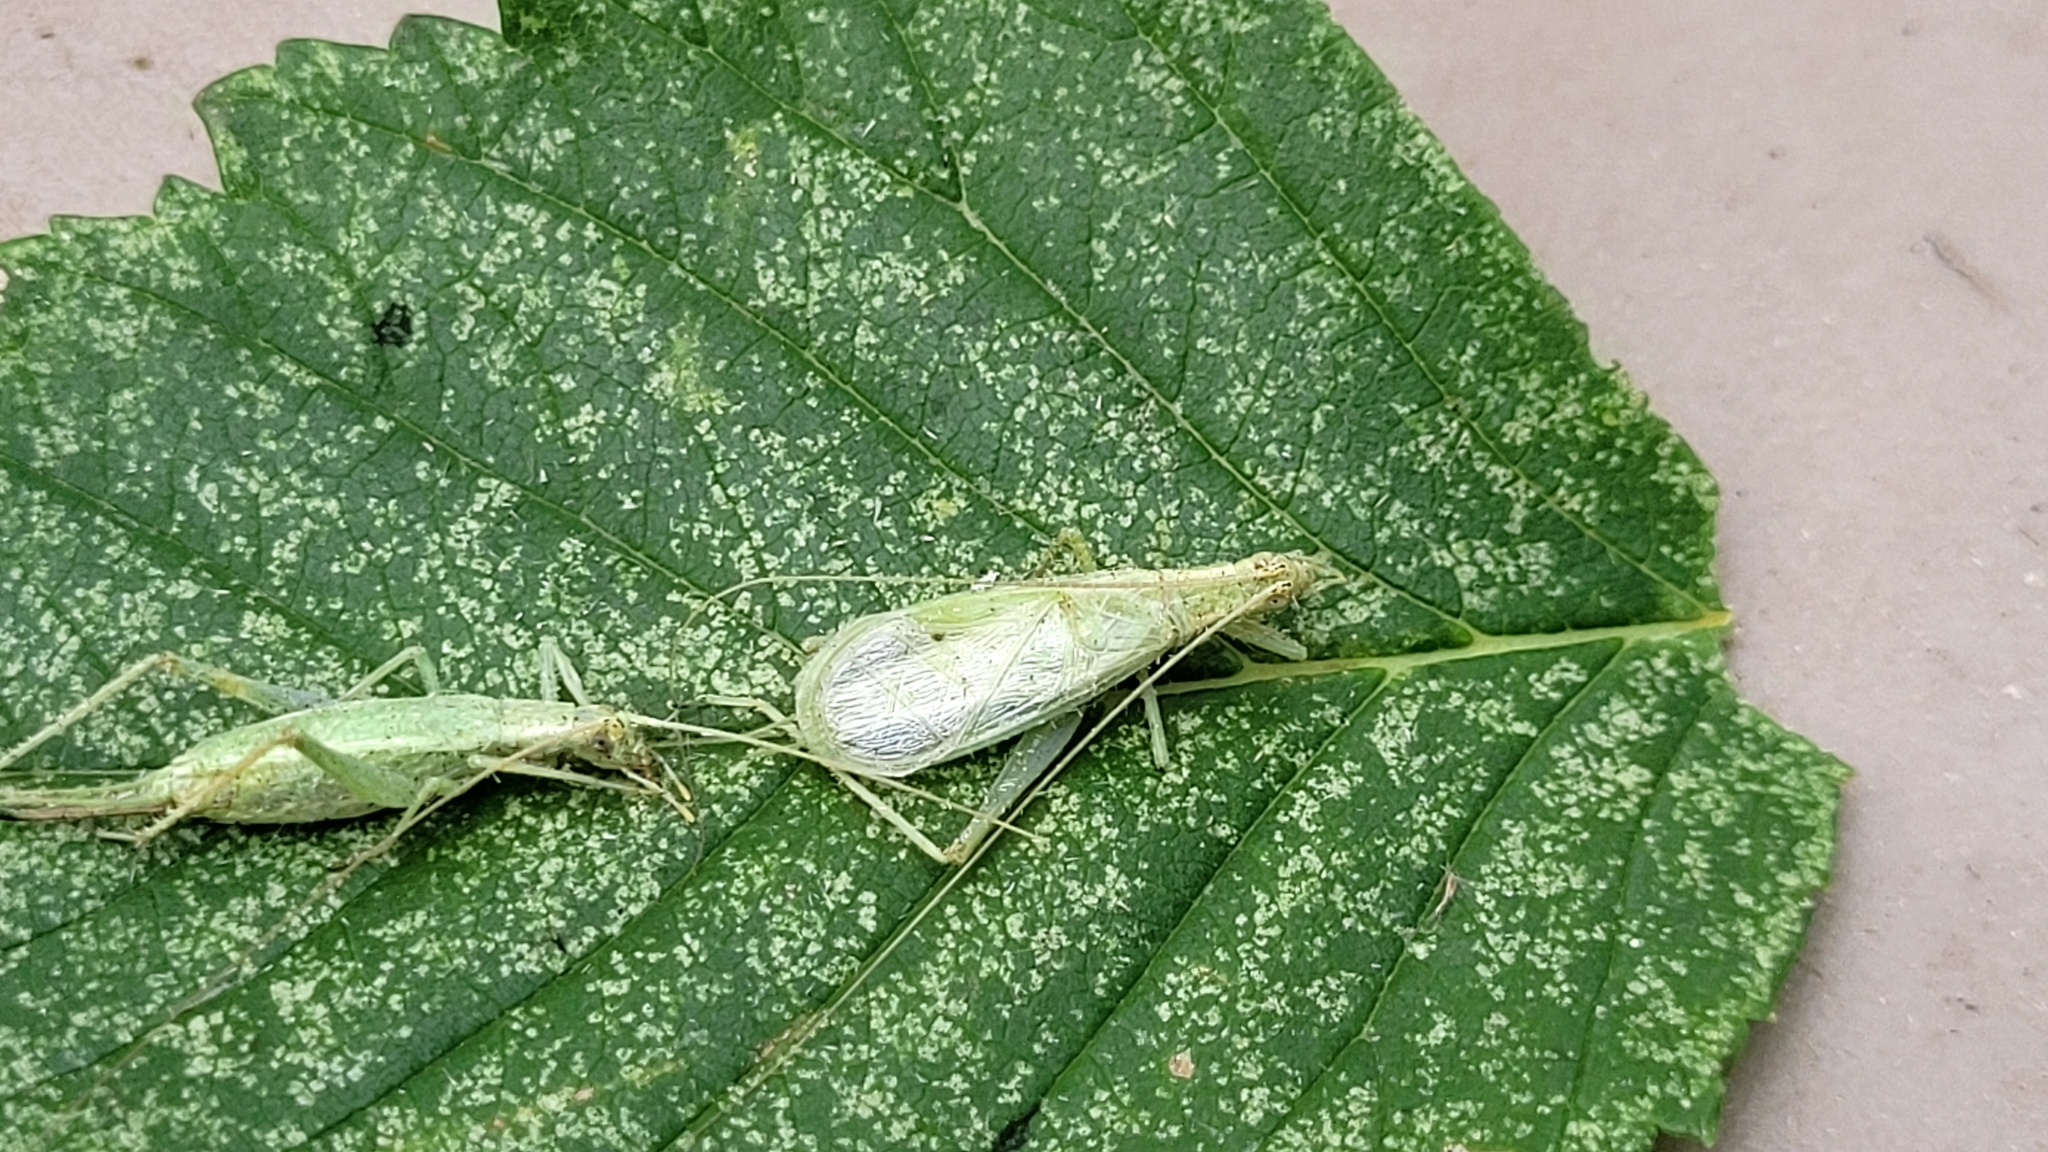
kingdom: Animalia
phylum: Arthropoda
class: Insecta
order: Orthoptera
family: Gryllidae
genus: Oecanthus
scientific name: Oecanthus quadripunctatus
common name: Four-spotted tree cricket
